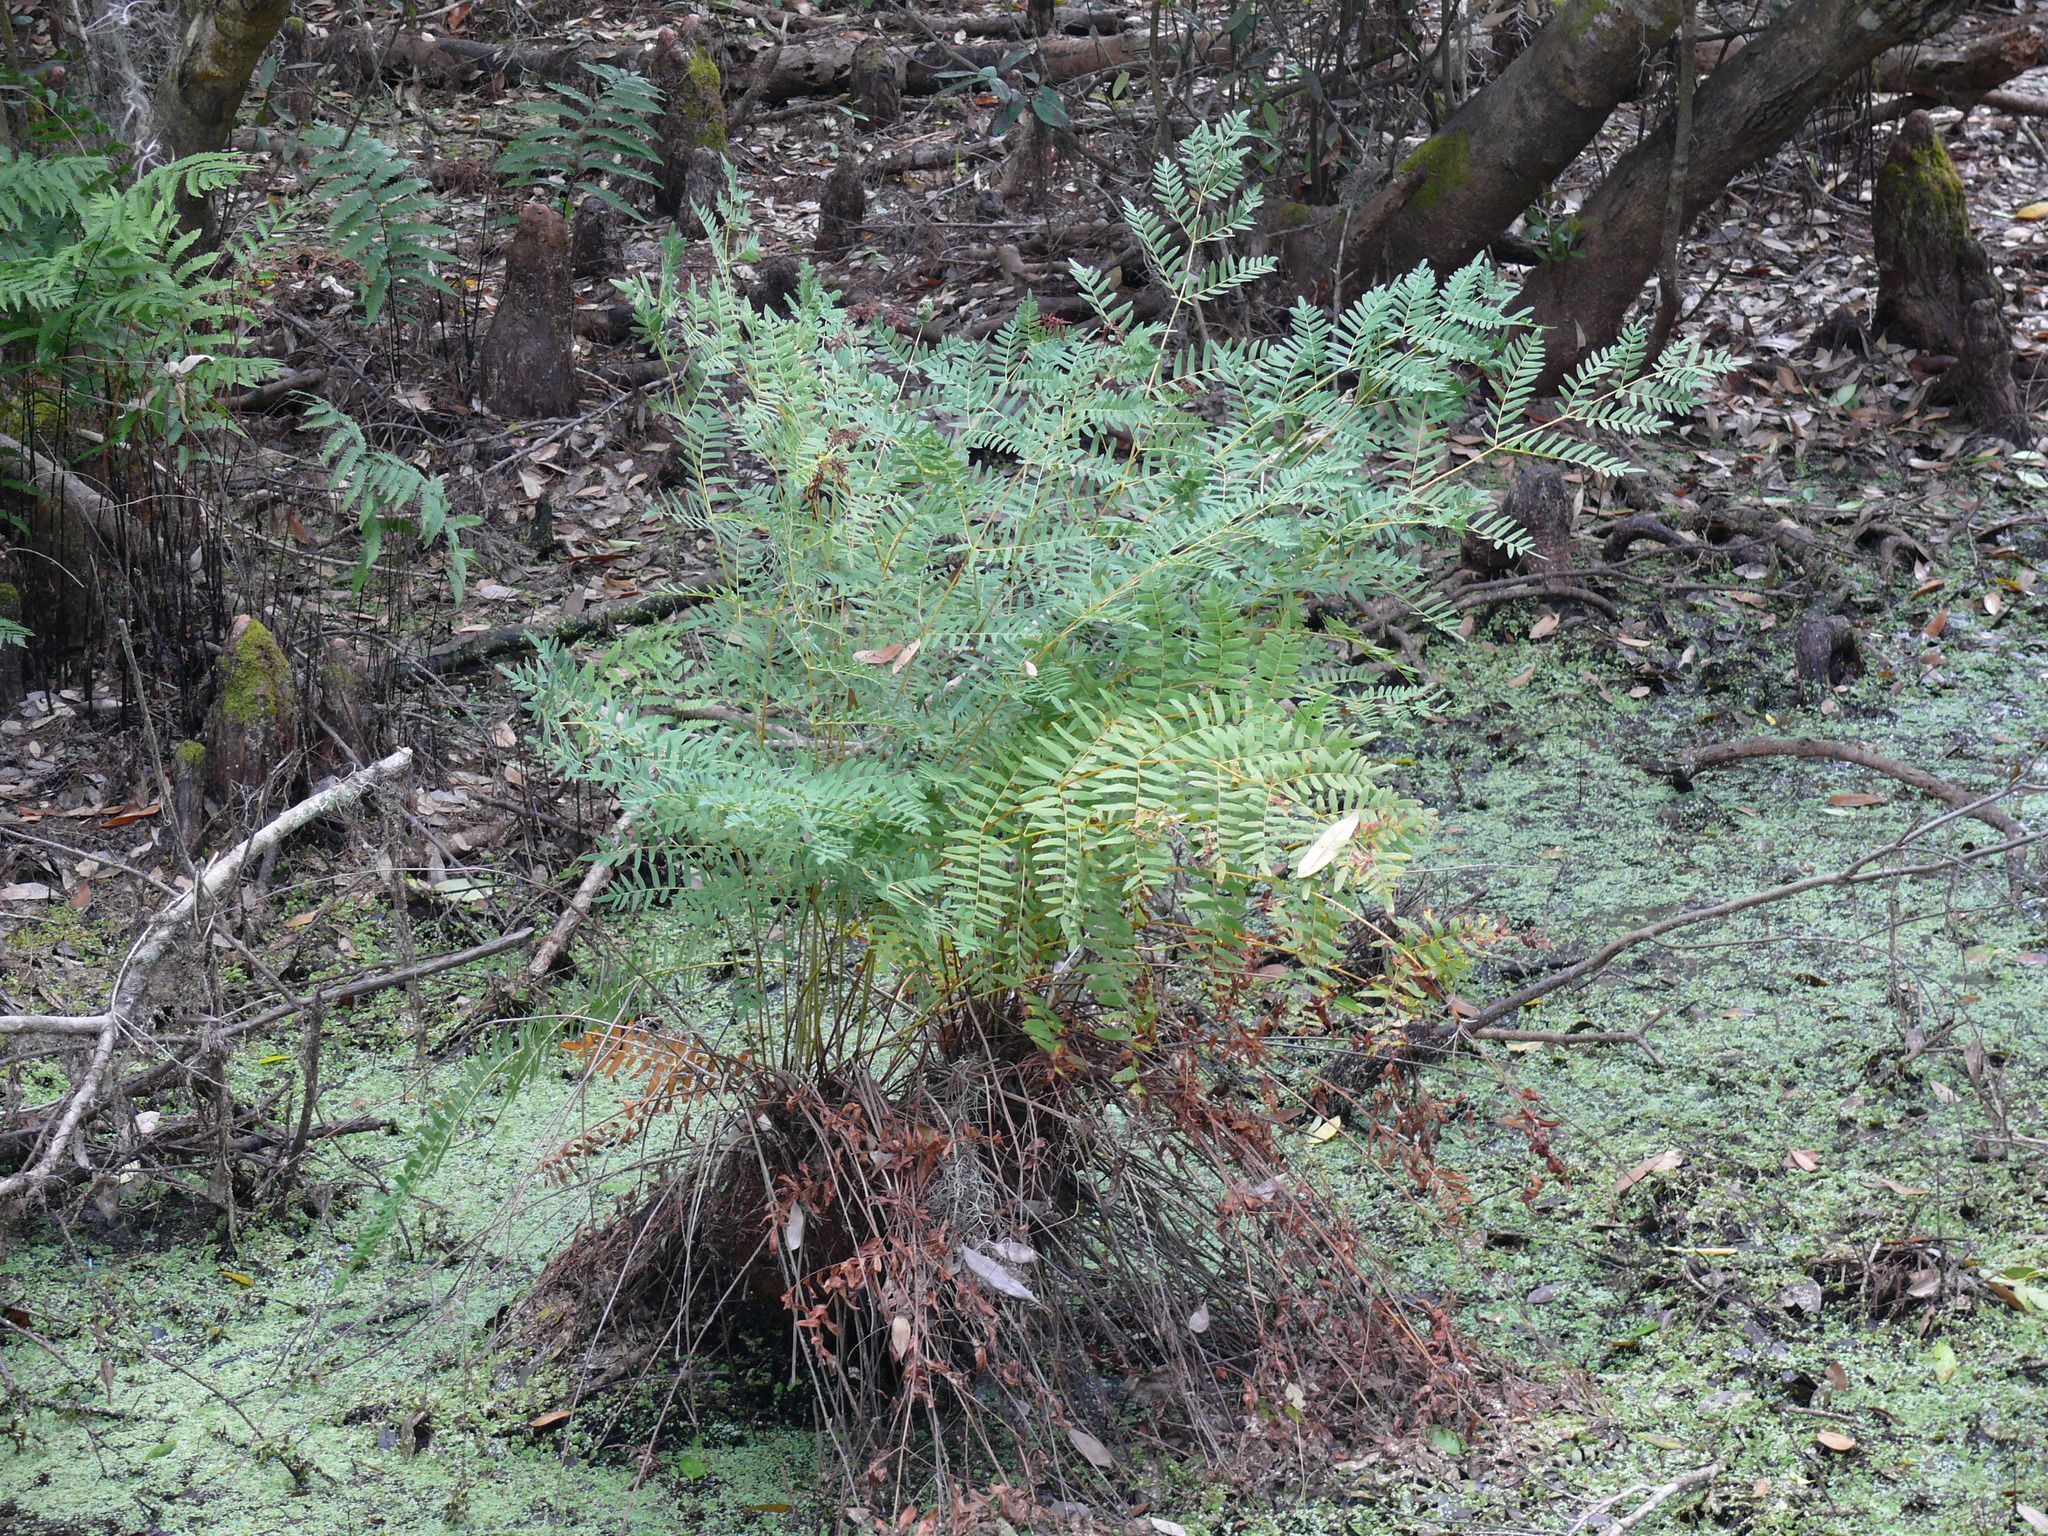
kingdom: Plantae
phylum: Tracheophyta
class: Polypodiopsida
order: Osmundales
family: Osmundaceae
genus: Osmunda
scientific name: Osmunda spectabilis
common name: American royal fern
